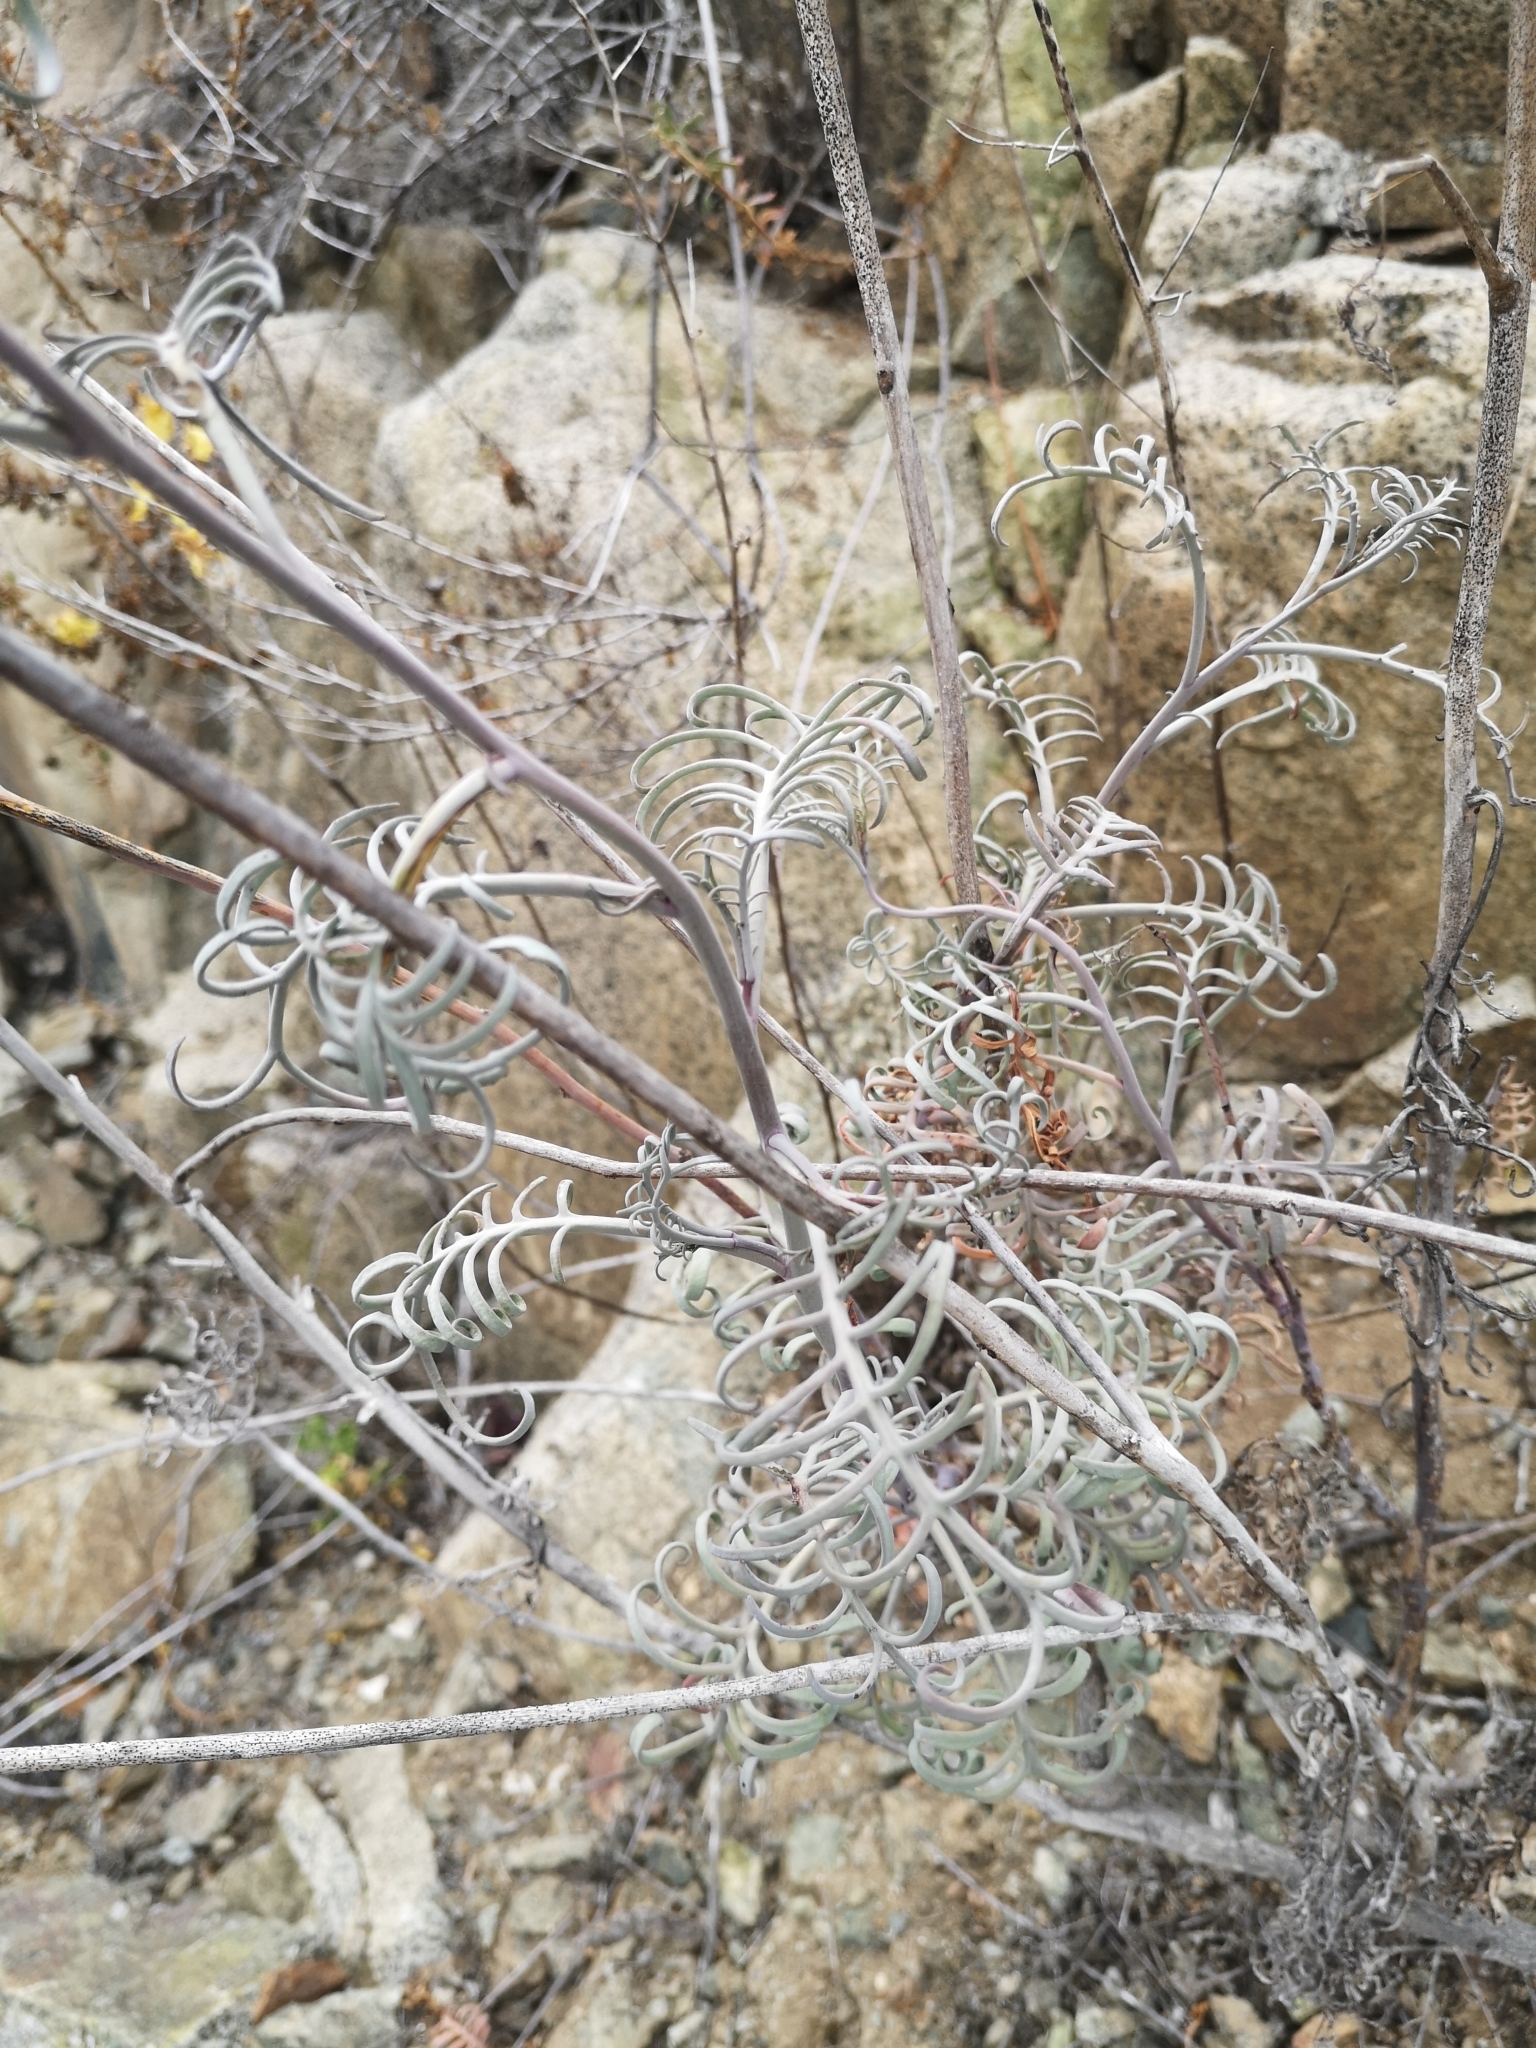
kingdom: Plantae
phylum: Tracheophyta
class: Magnoliopsida
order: Brassicales
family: Brassicaceae
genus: Sibara
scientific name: Sibara pinnata
